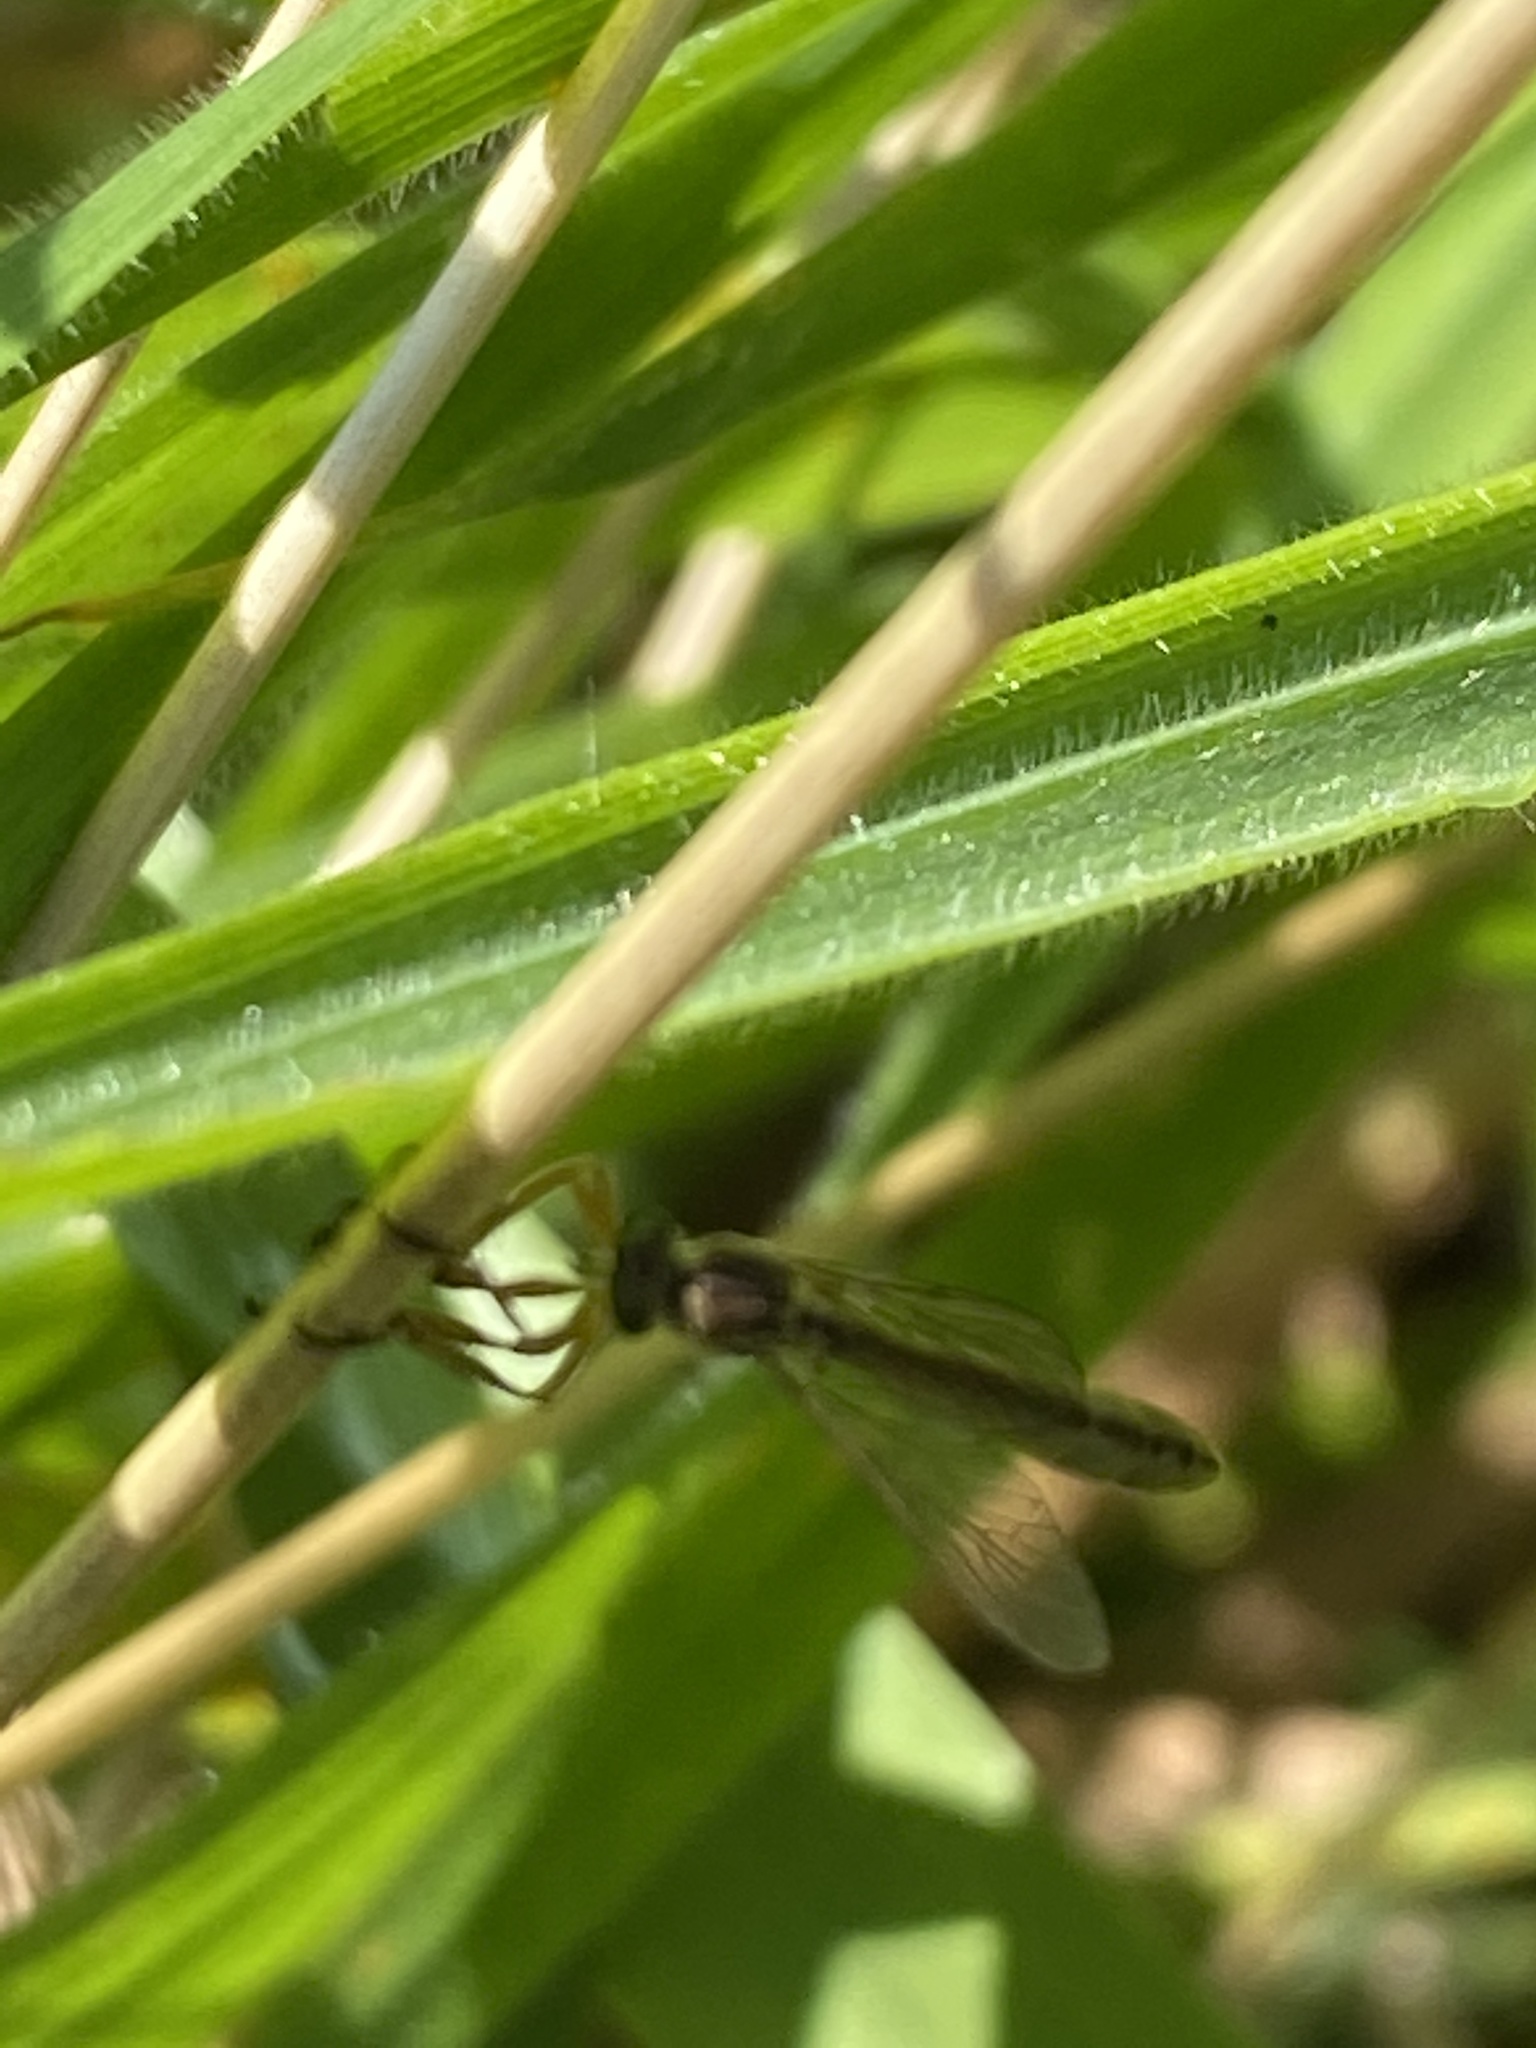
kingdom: Animalia
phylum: Arthropoda
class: Insecta
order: Diptera
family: Asilidae
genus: Leptogaster
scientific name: Leptogaster cylindrica
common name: Striped slender robberfly
